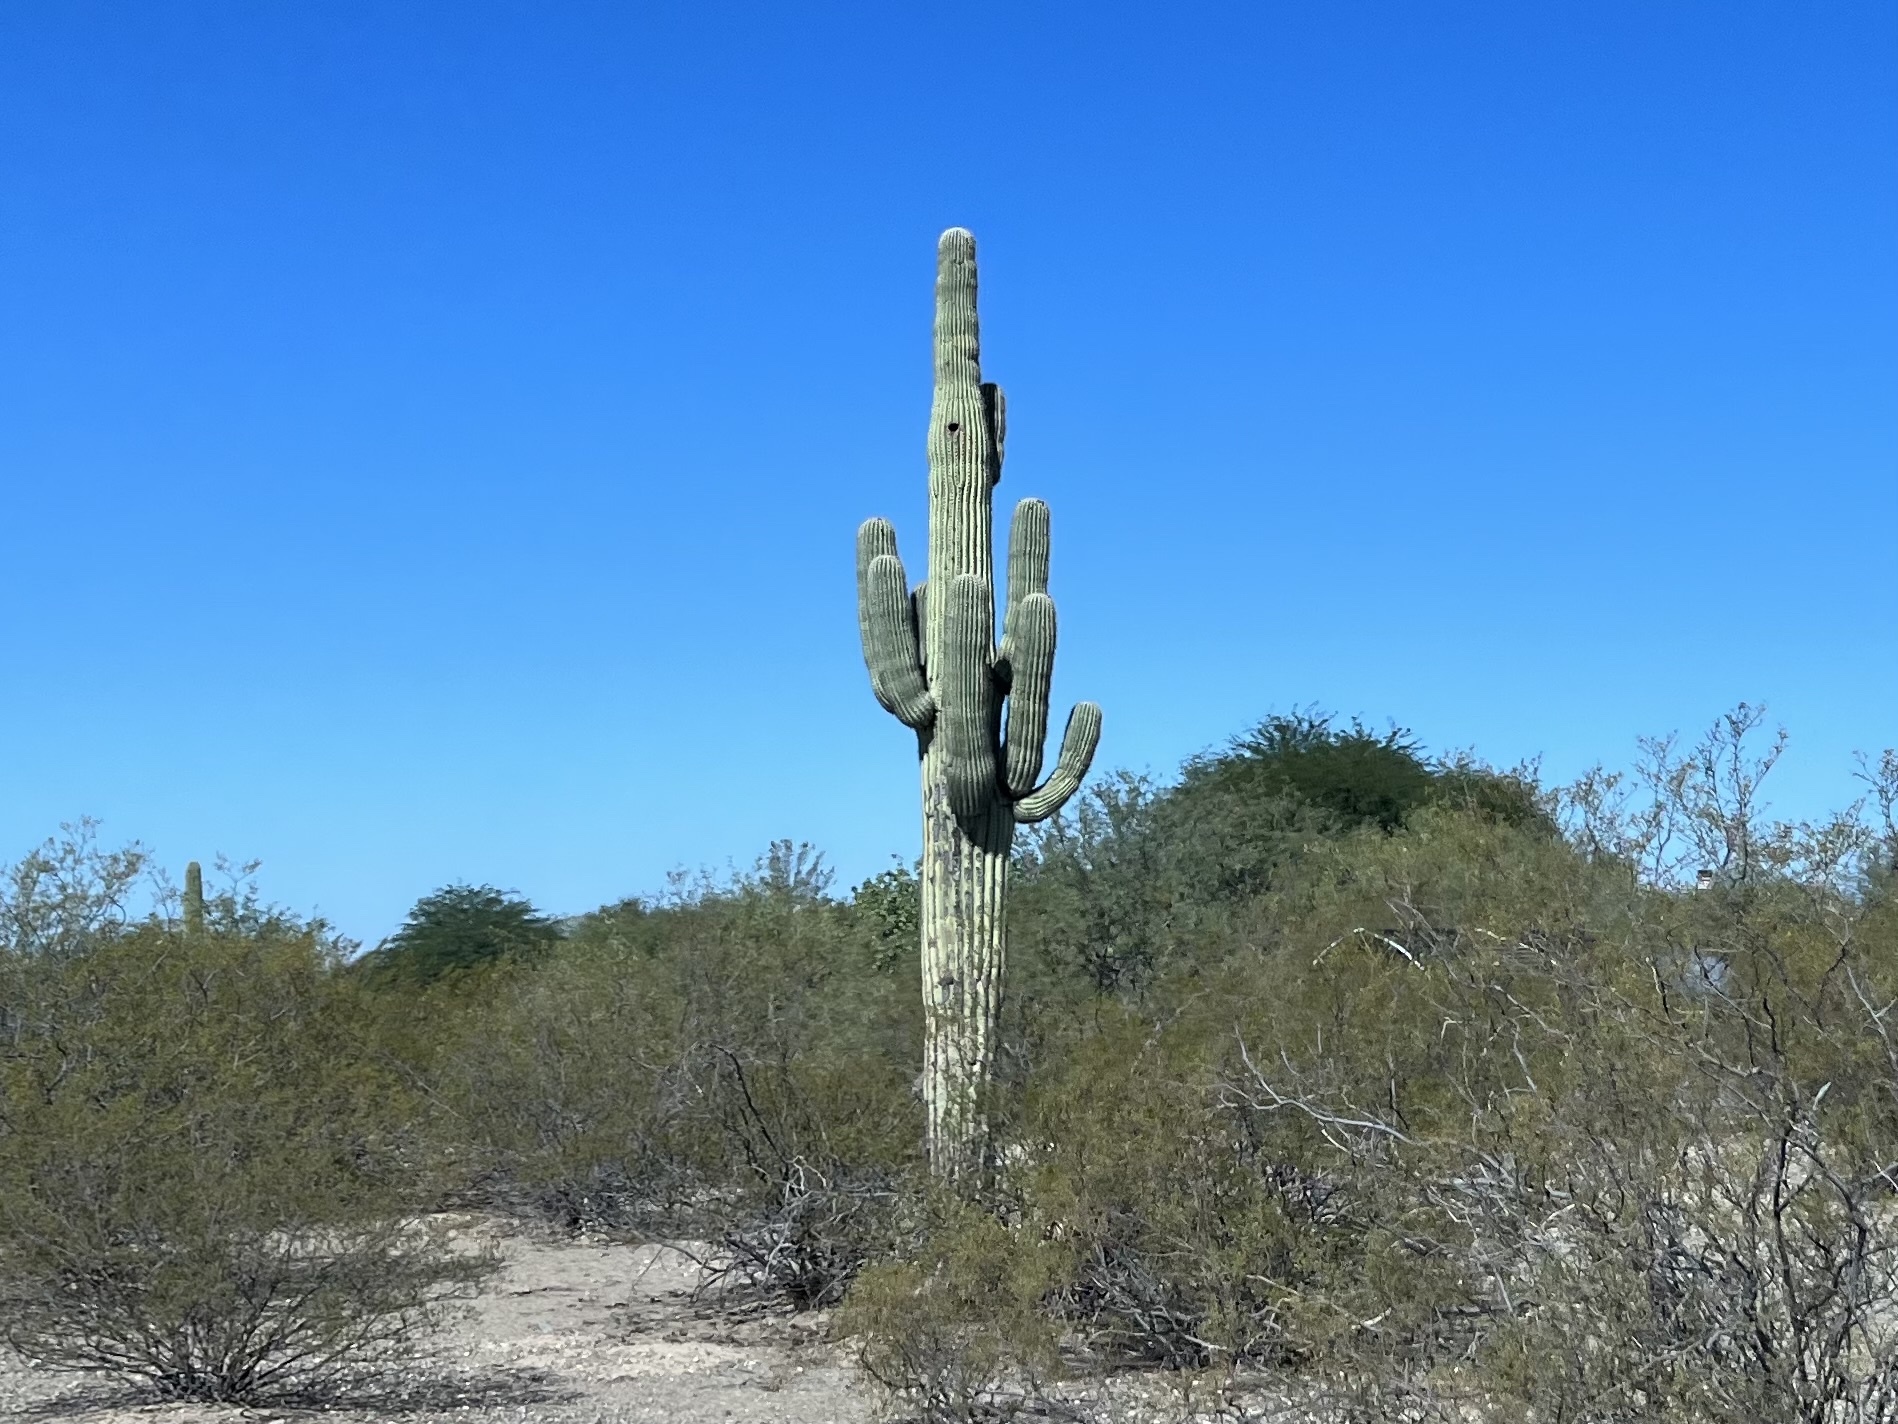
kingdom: Plantae
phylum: Tracheophyta
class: Magnoliopsida
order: Caryophyllales
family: Cactaceae
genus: Carnegiea
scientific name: Carnegiea gigantea
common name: Saguaro
